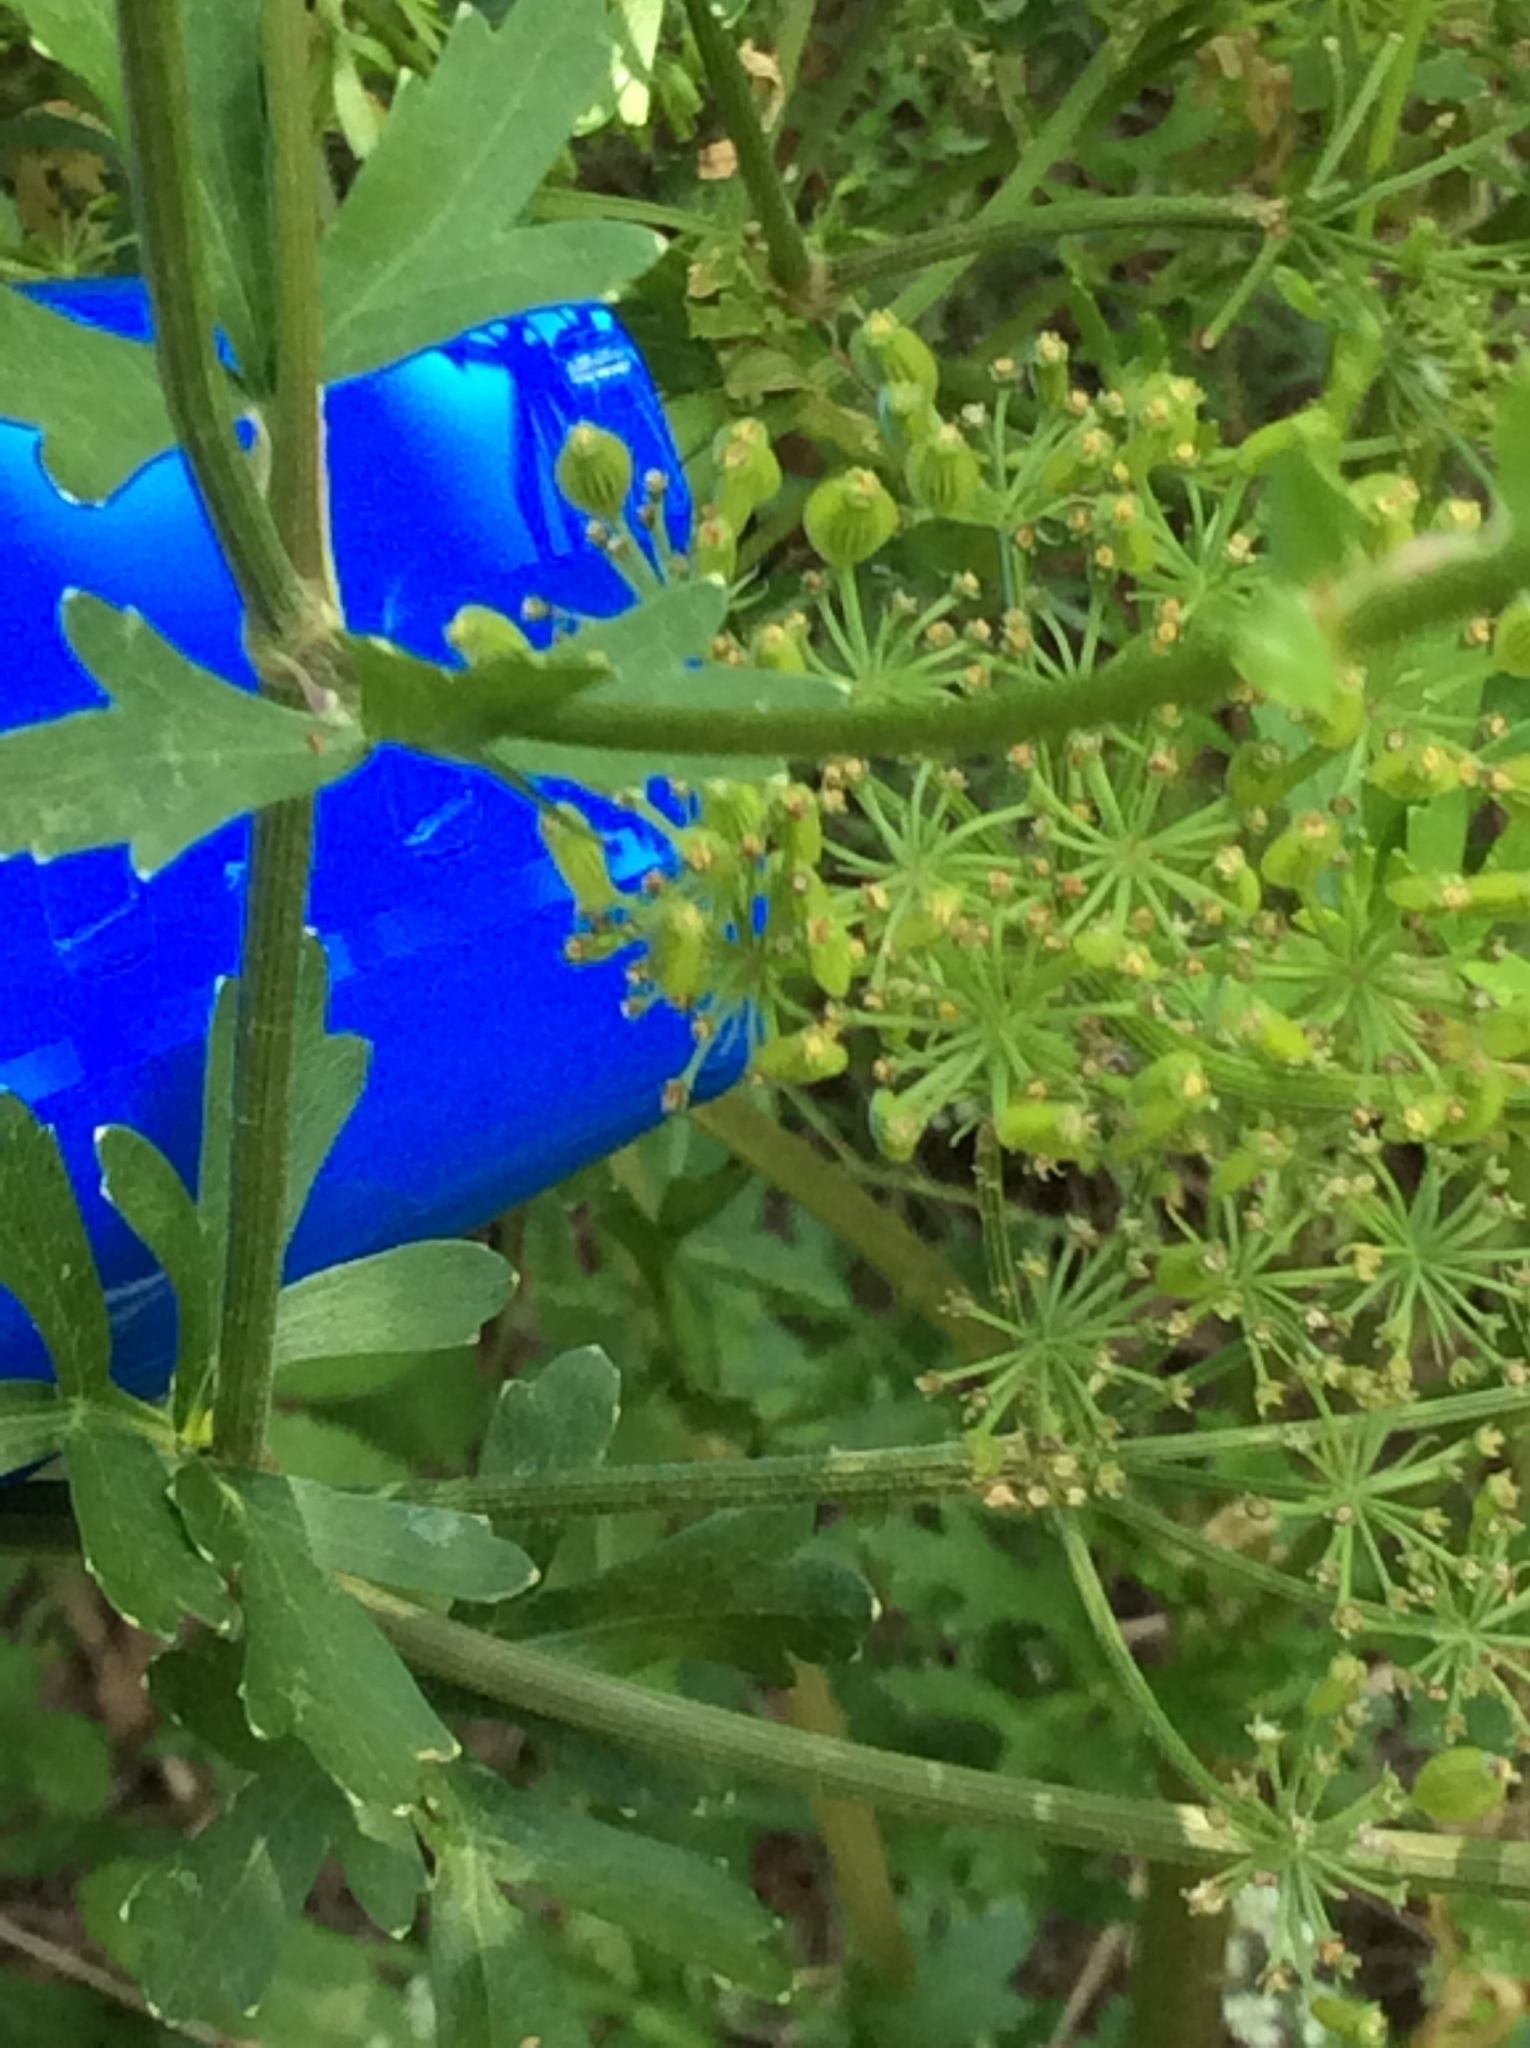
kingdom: Plantae
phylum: Tracheophyta
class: Magnoliopsida
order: Apiales
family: Apiaceae
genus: Polytaenia
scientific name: Polytaenia texana
